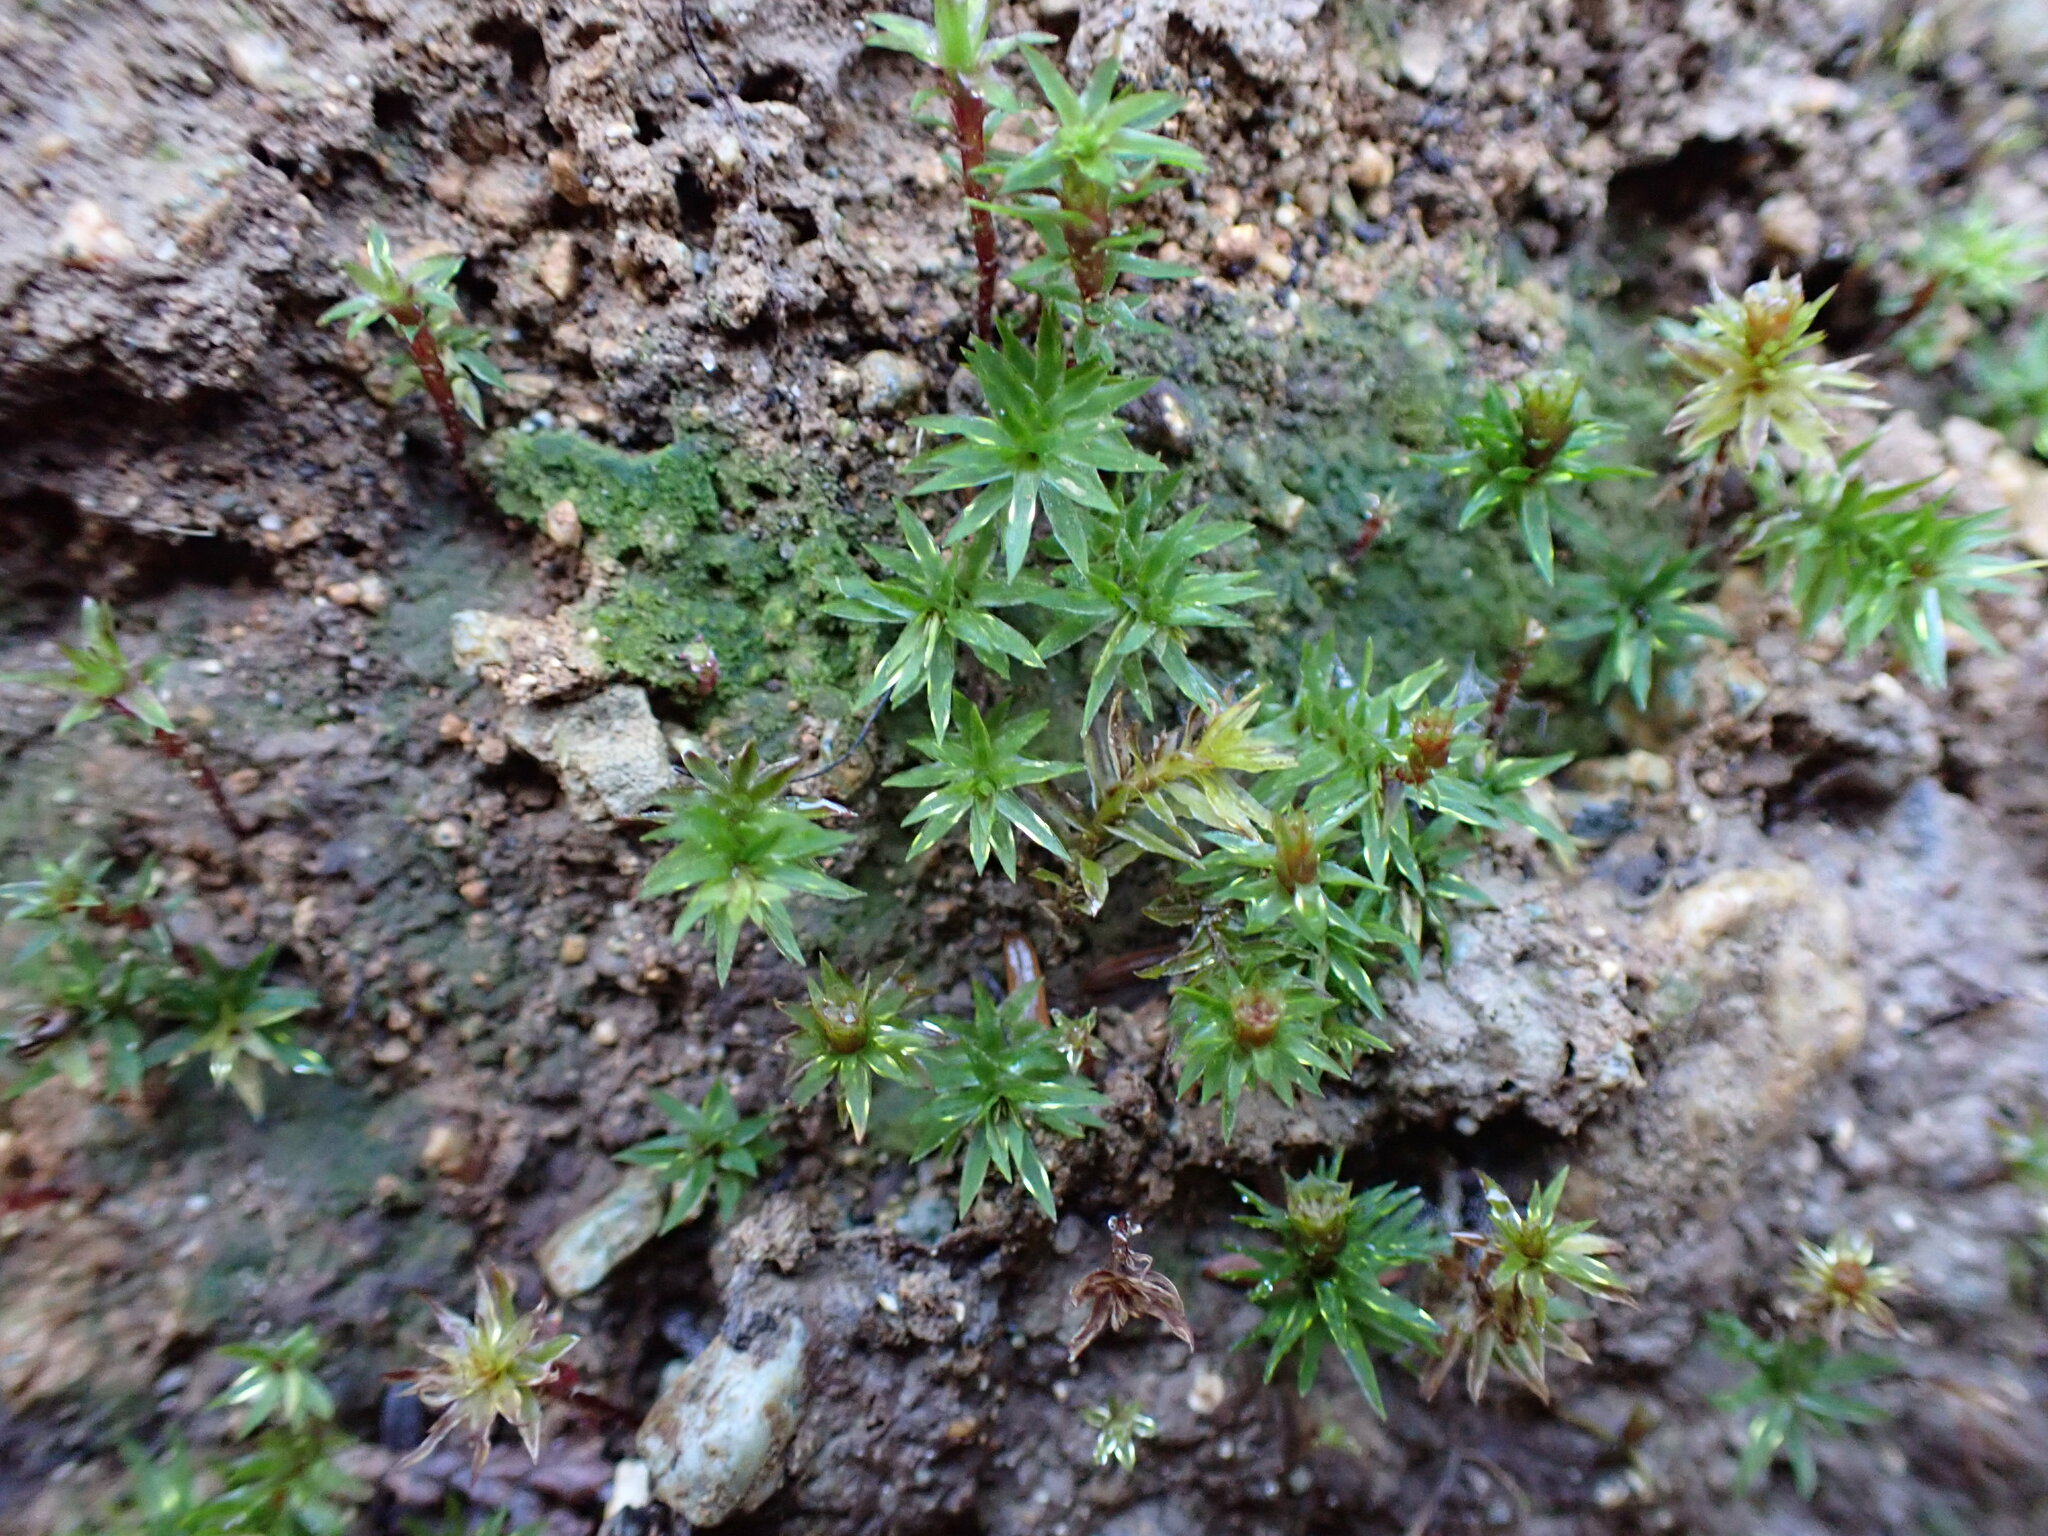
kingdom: Plantae
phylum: Bryophyta
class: Polytrichopsida
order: Polytrichales
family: Polytrichaceae
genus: Pogonatum
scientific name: Pogonatum contortum
